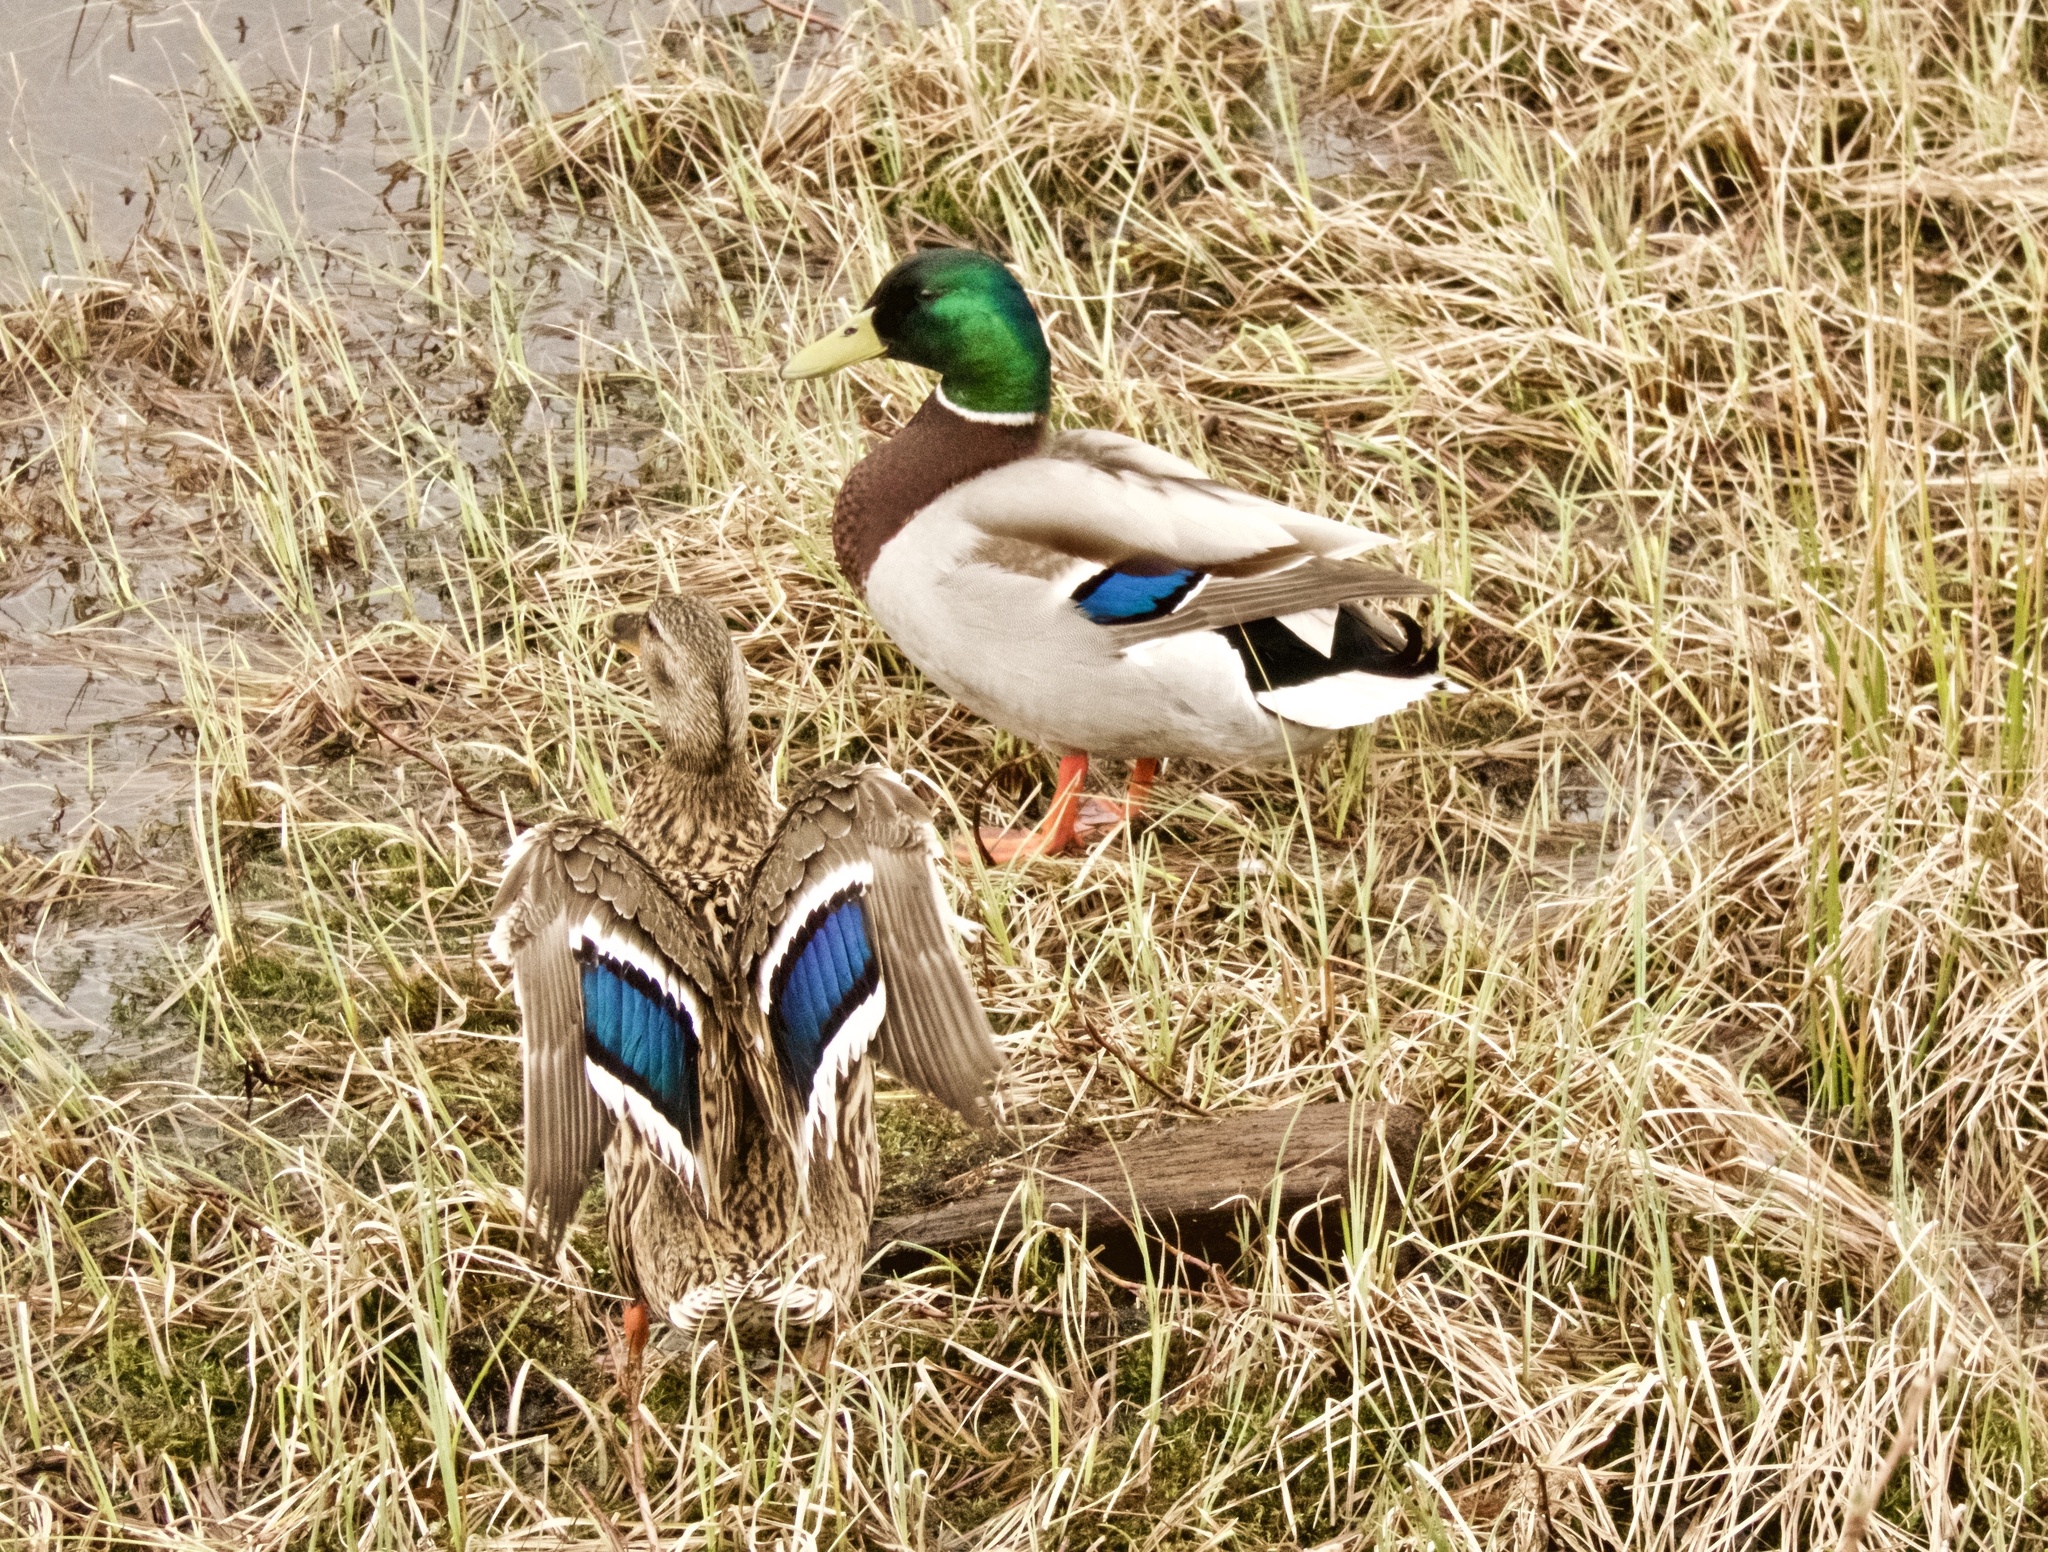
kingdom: Animalia
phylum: Chordata
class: Aves
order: Anseriformes
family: Anatidae
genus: Anas
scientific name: Anas platyrhynchos
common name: Mallard
